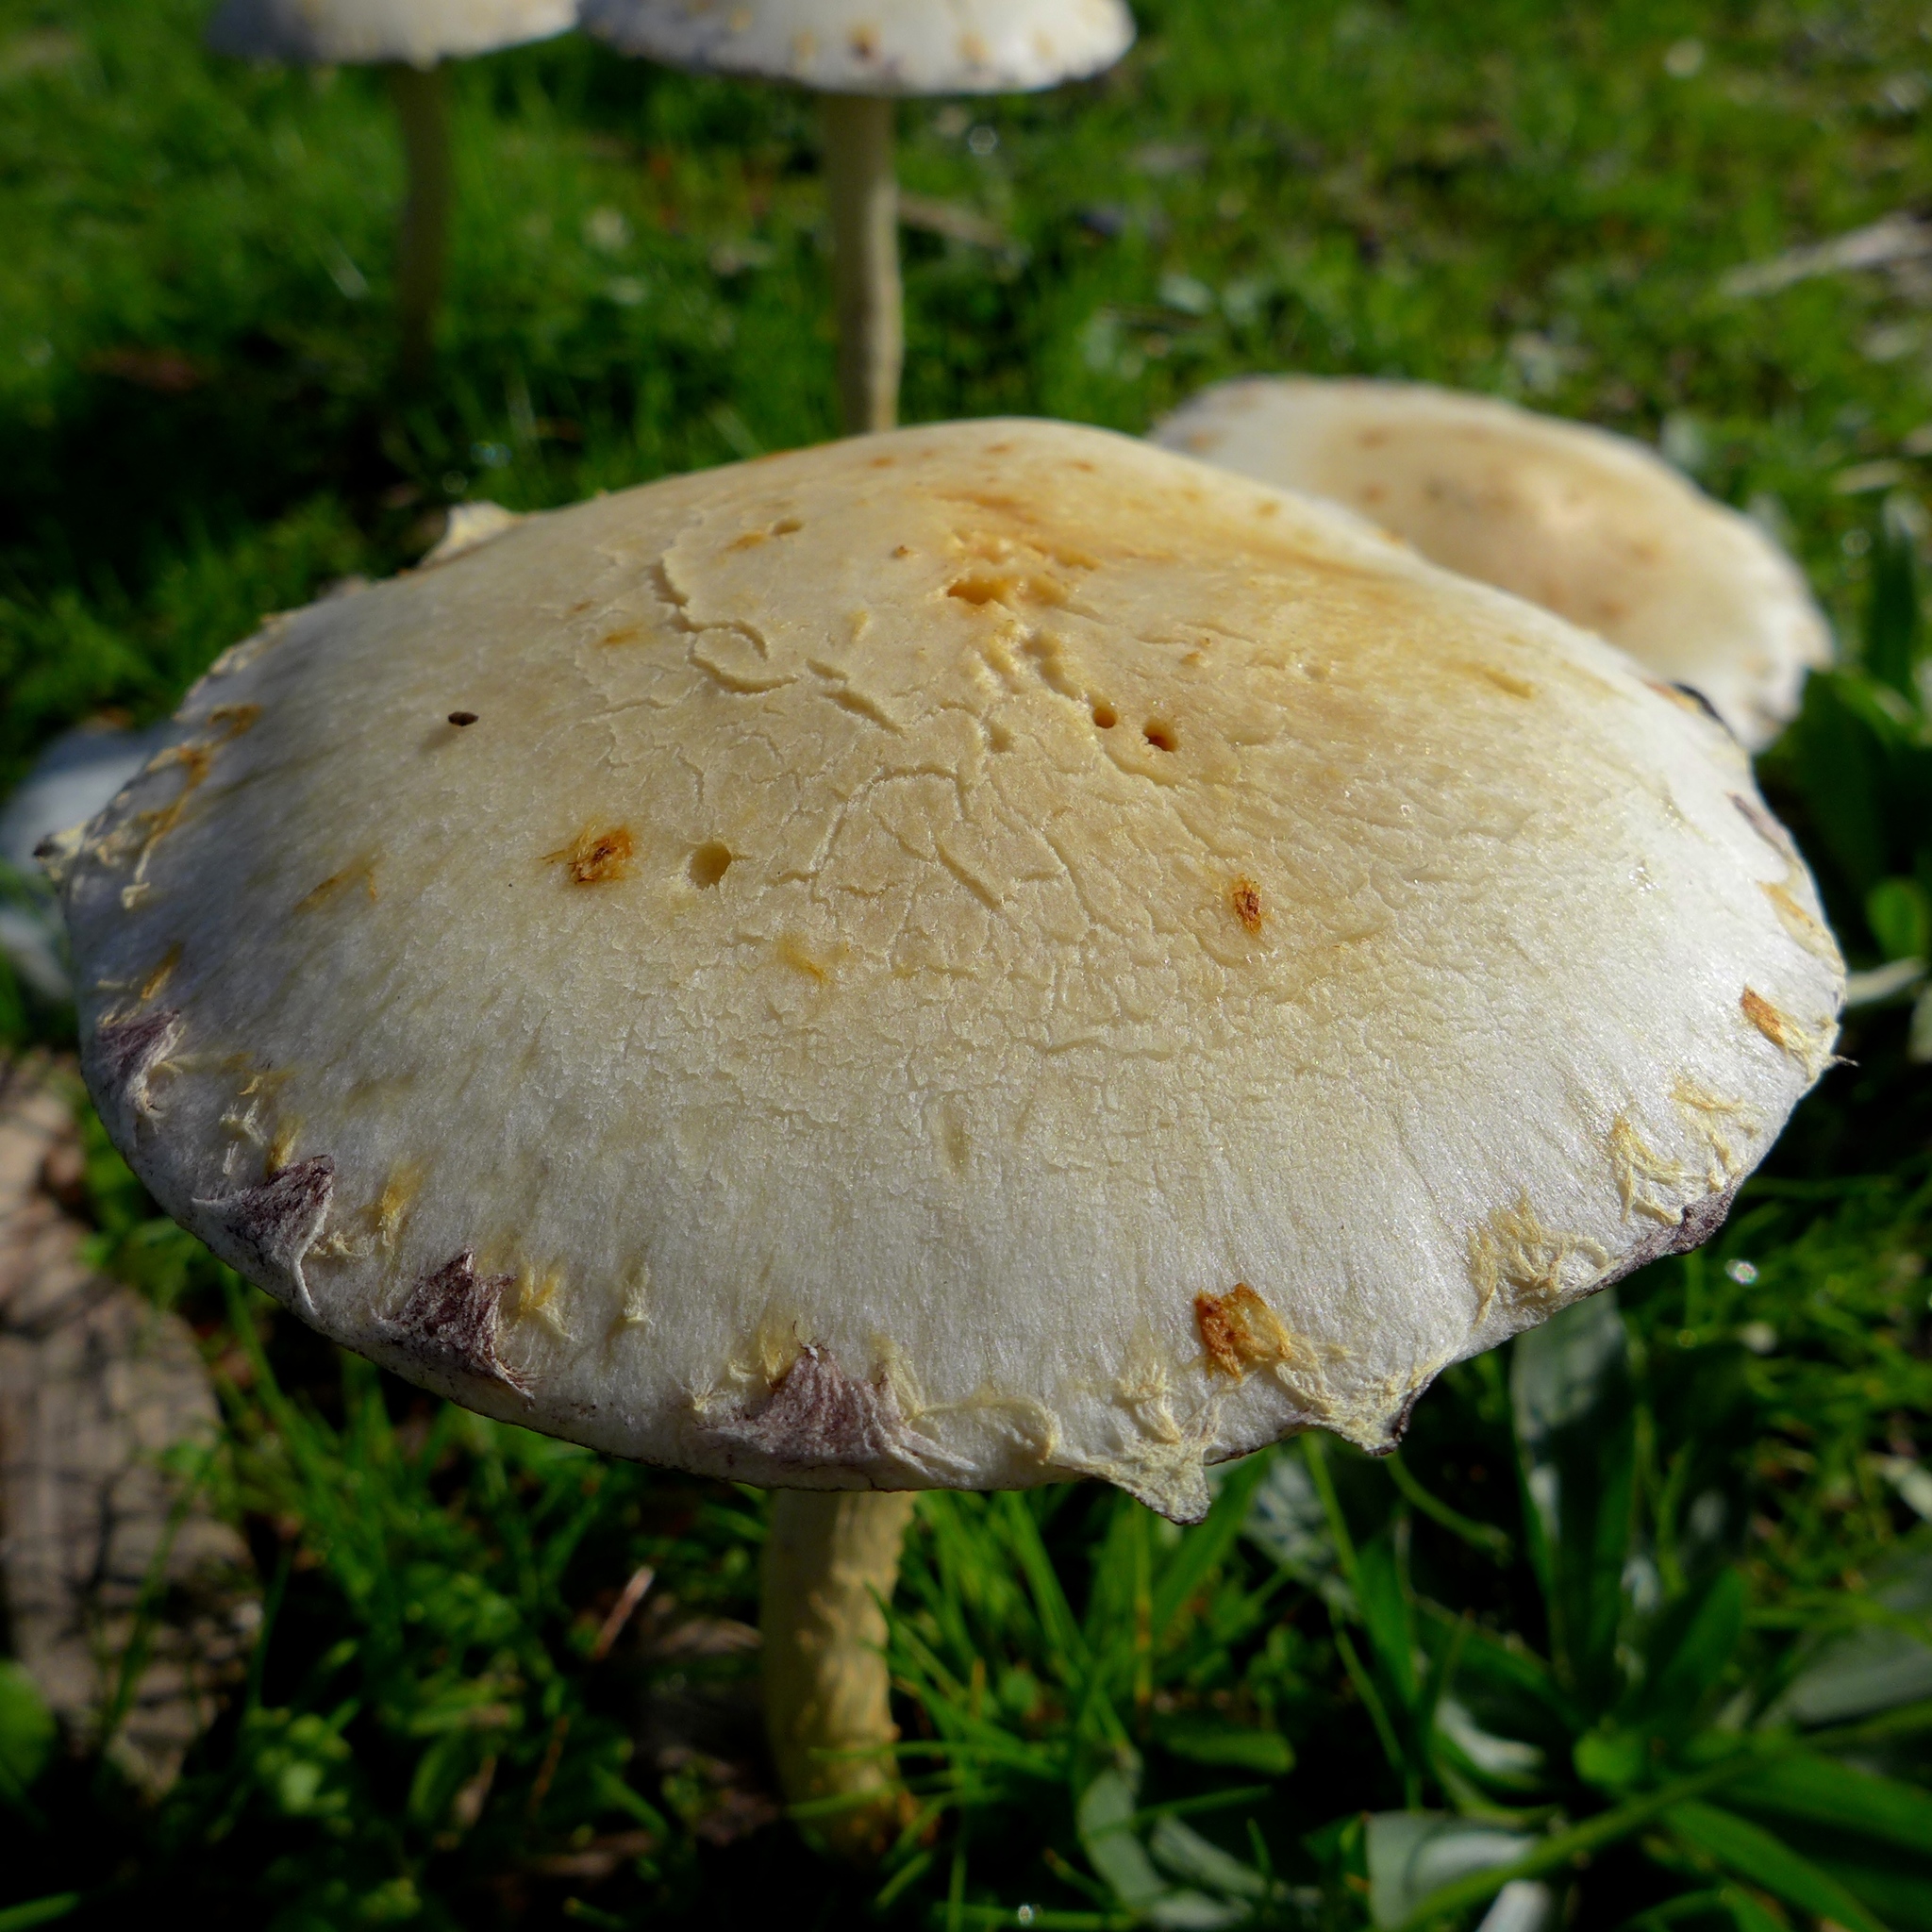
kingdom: Fungi
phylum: Basidiomycota
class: Agaricomycetes
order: Agaricales
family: Strophariaceae
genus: Leratiomyces
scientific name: Leratiomyces percevalii
